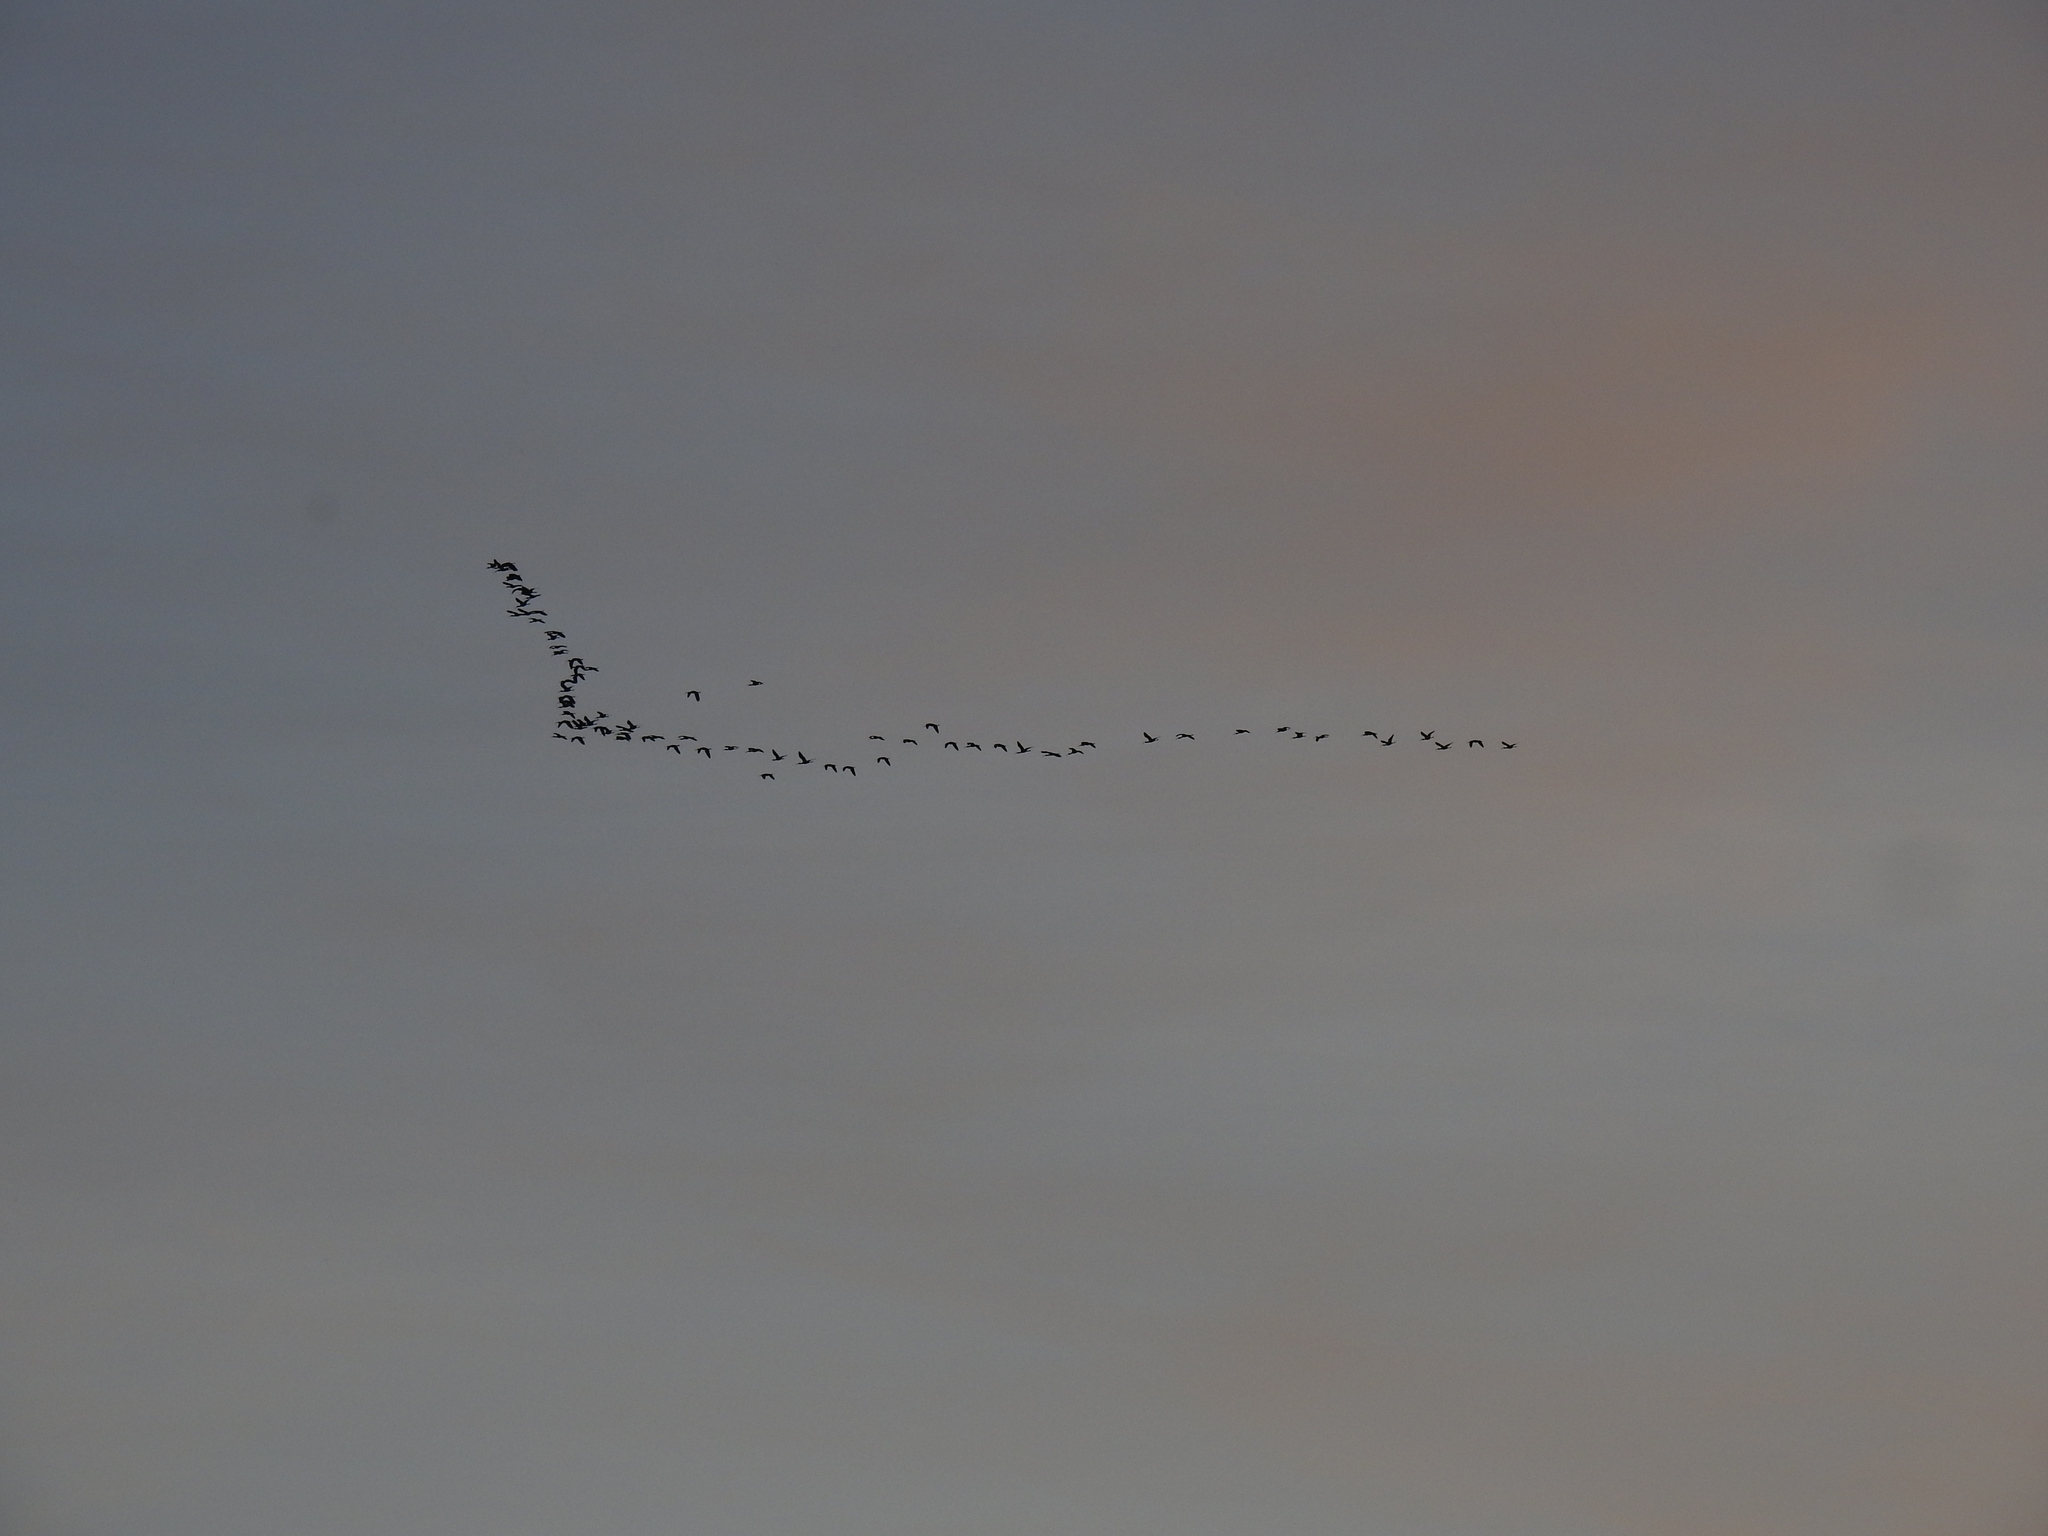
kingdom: Animalia
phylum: Chordata
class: Aves
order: Pelecaniformes
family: Threskiornithidae
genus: Plegadis
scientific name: Plegadis chihi
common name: White-faced ibis
